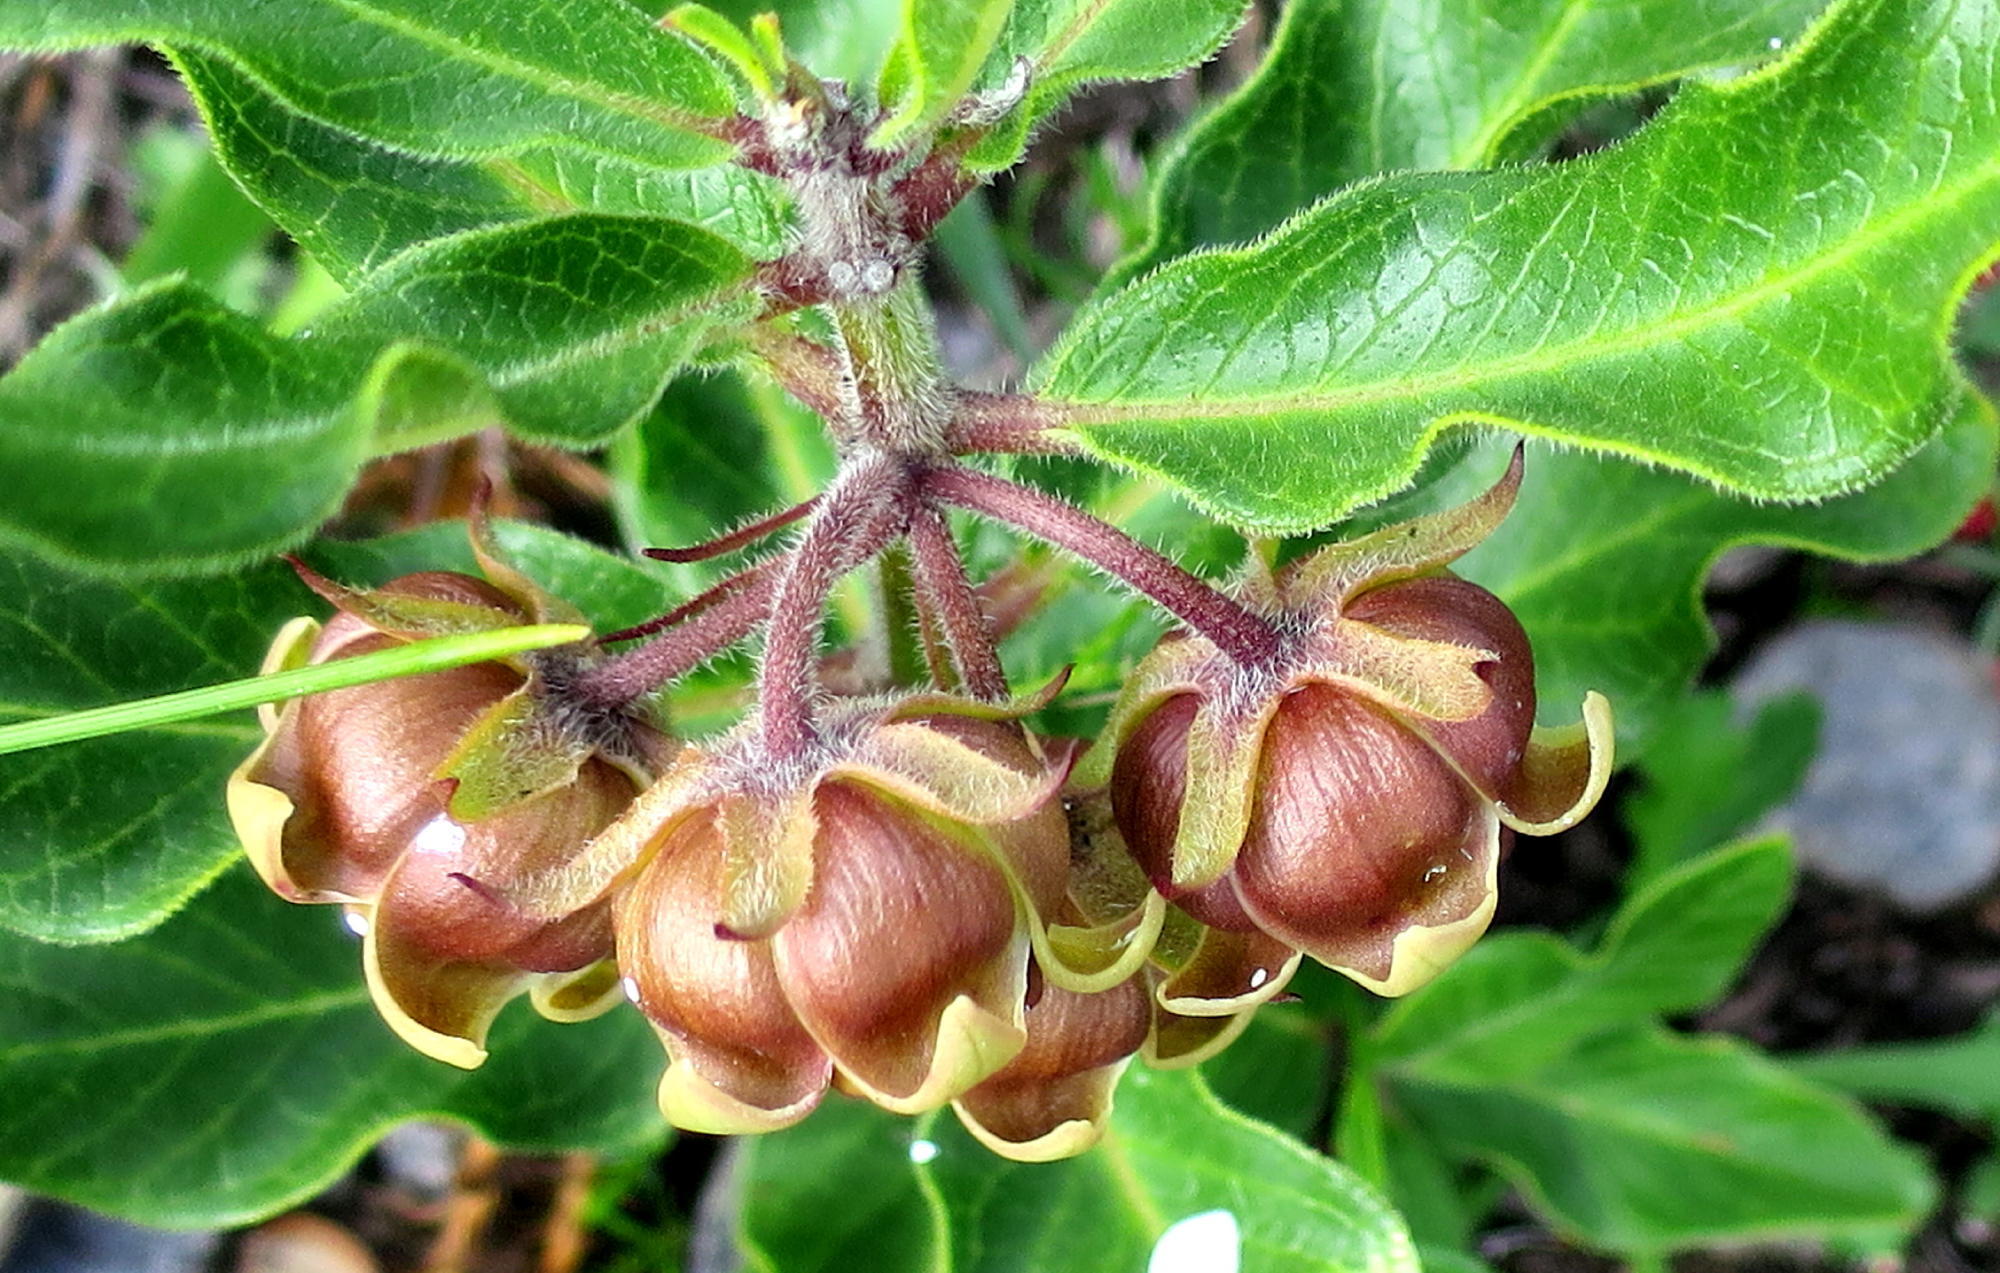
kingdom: Plantae
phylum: Tracheophyta
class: Magnoliopsida
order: Gentianales
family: Apocynaceae
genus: Pachycarpus
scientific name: Pachycarpus dealbatus
